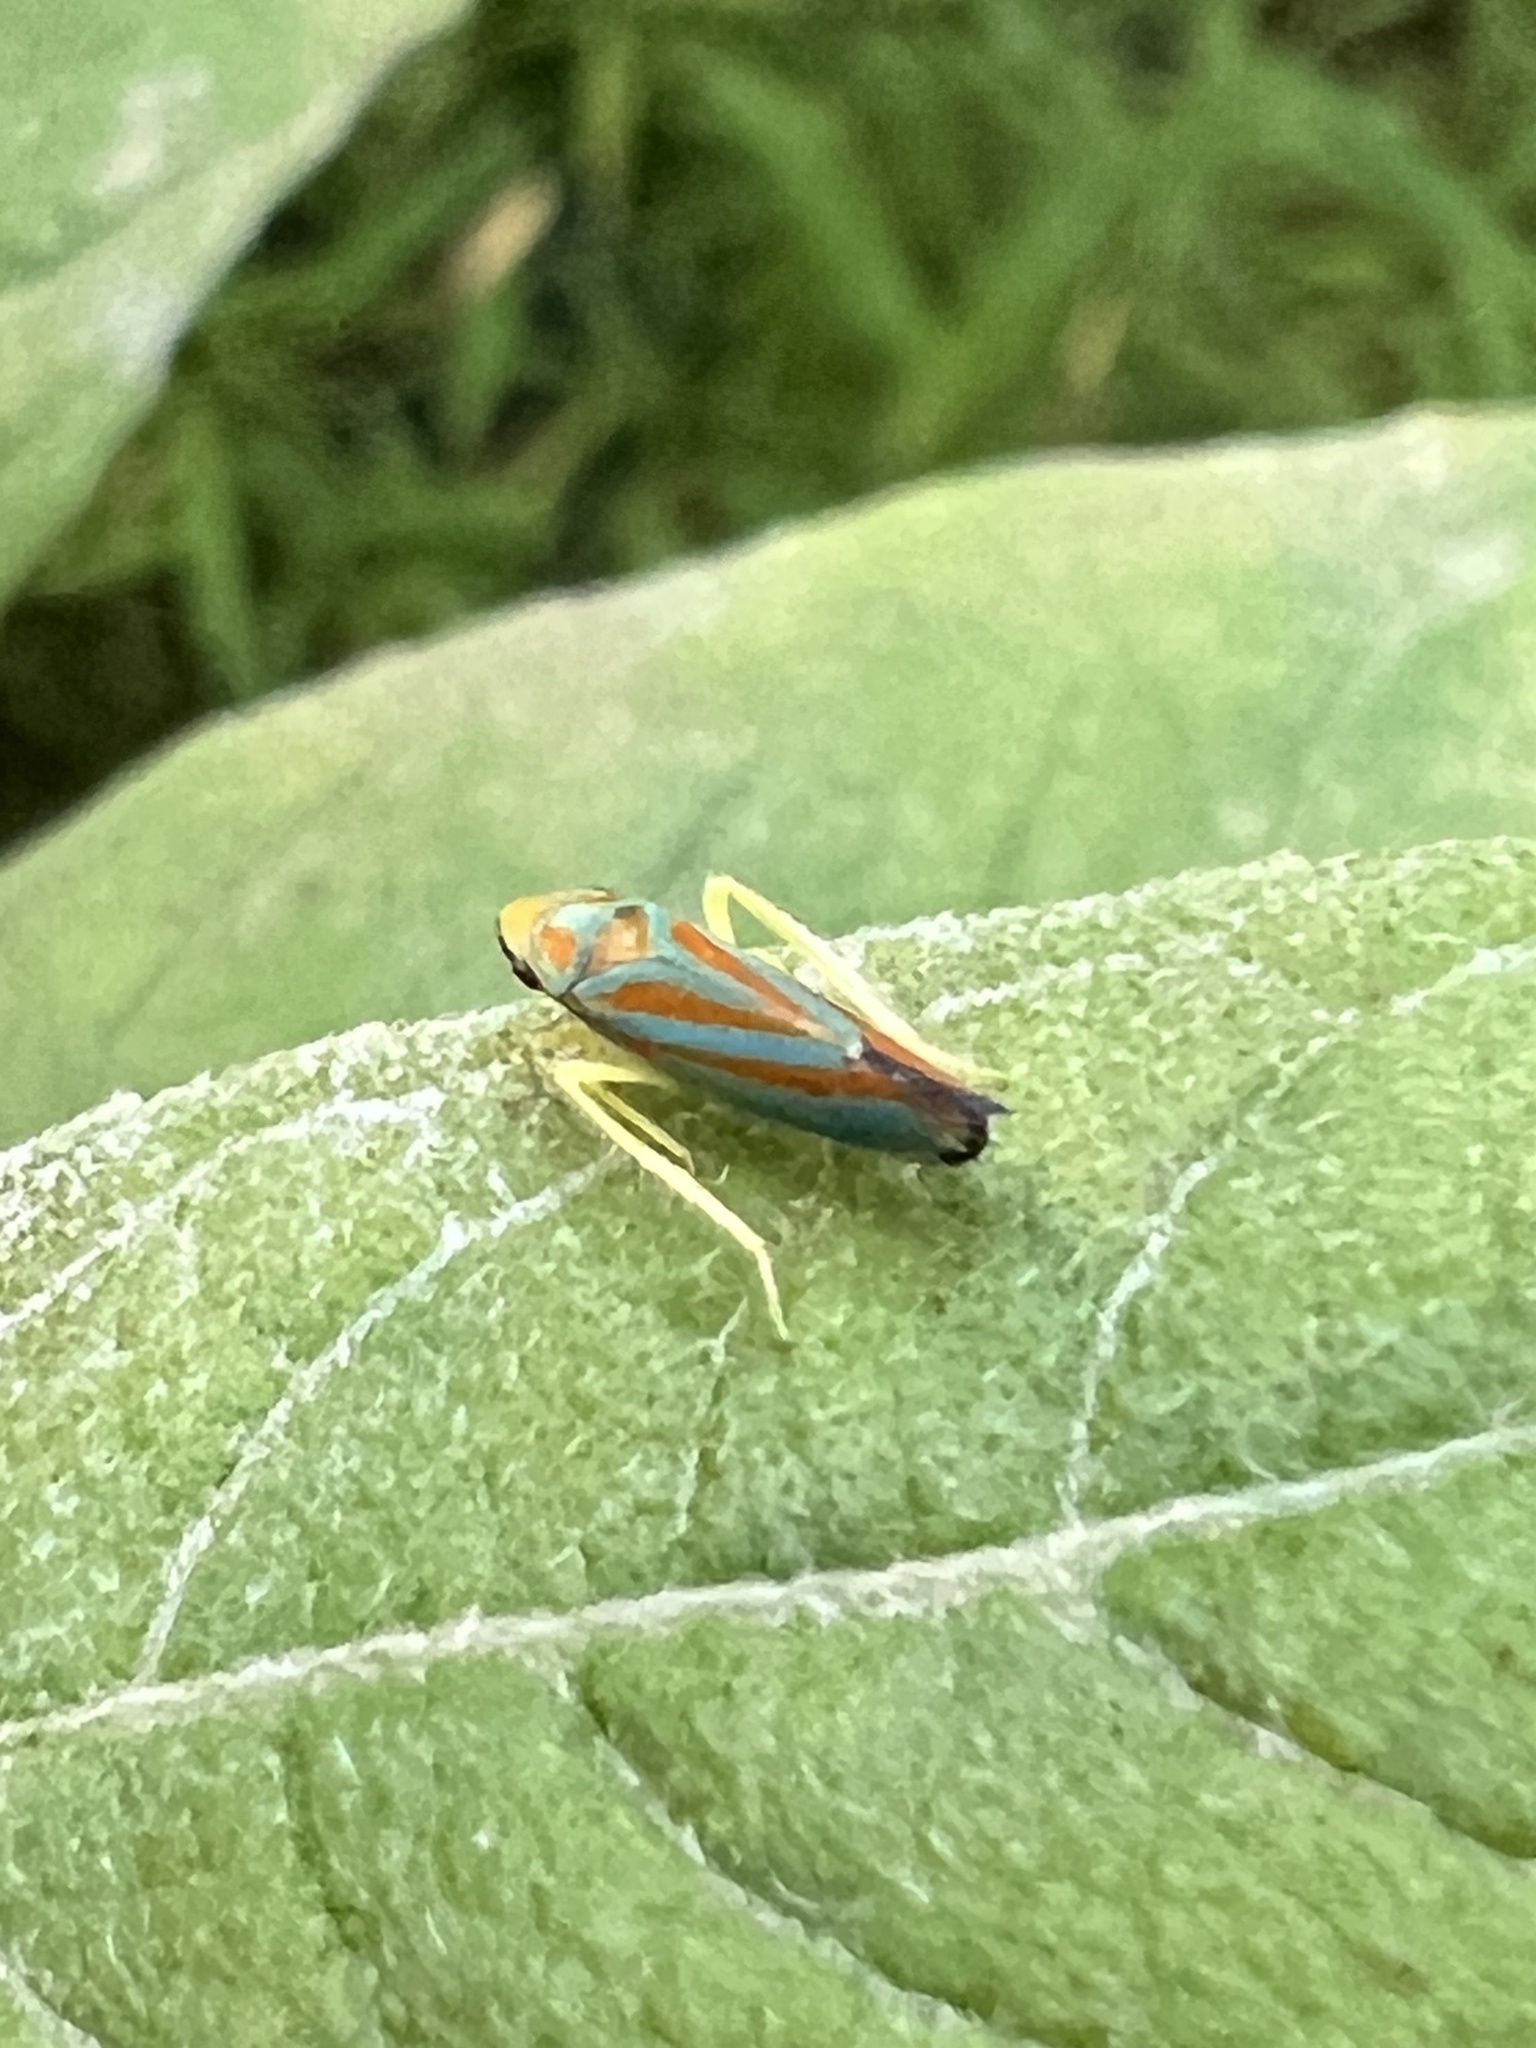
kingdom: Animalia
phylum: Arthropoda
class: Insecta
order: Hemiptera
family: Cicadellidae
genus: Graphocephala
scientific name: Graphocephala coccinea
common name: Candy-striped leafhopper
